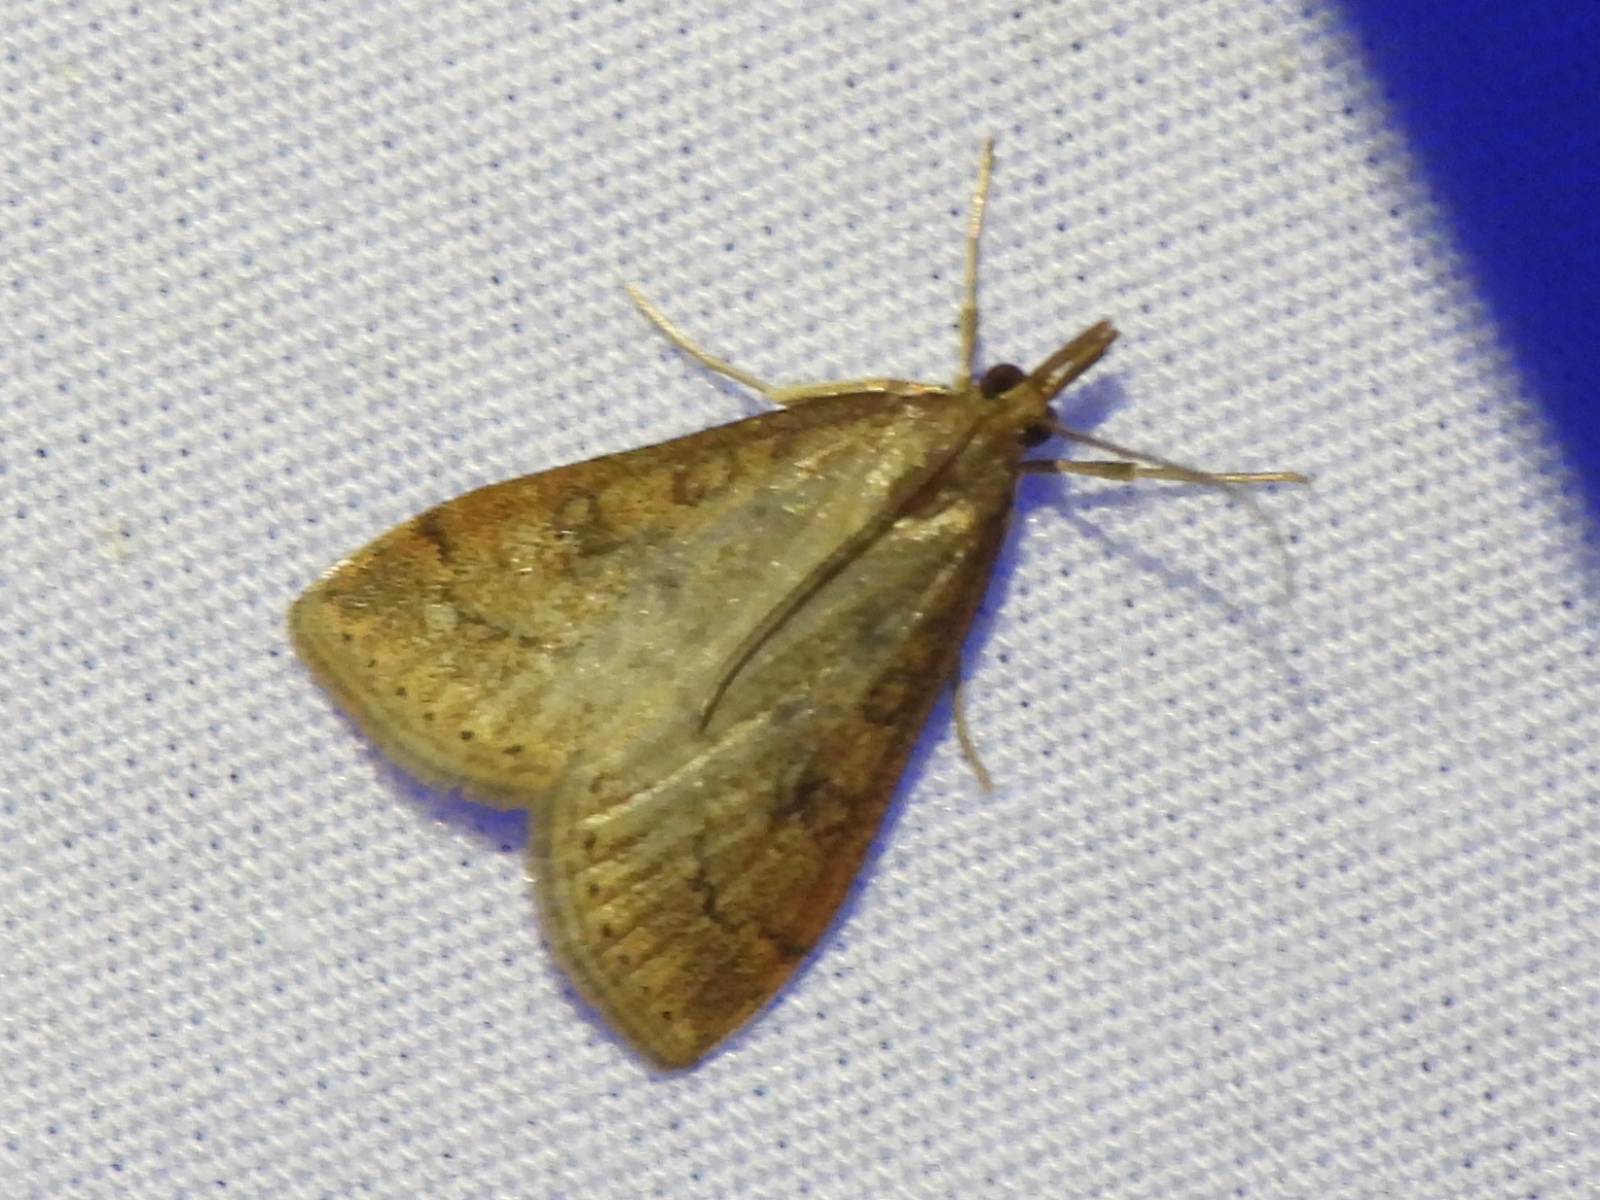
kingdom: Animalia
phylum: Arthropoda
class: Insecta
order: Lepidoptera
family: Crambidae
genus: Udea
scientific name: Udea rubigalis
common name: Celery leaftier moth
